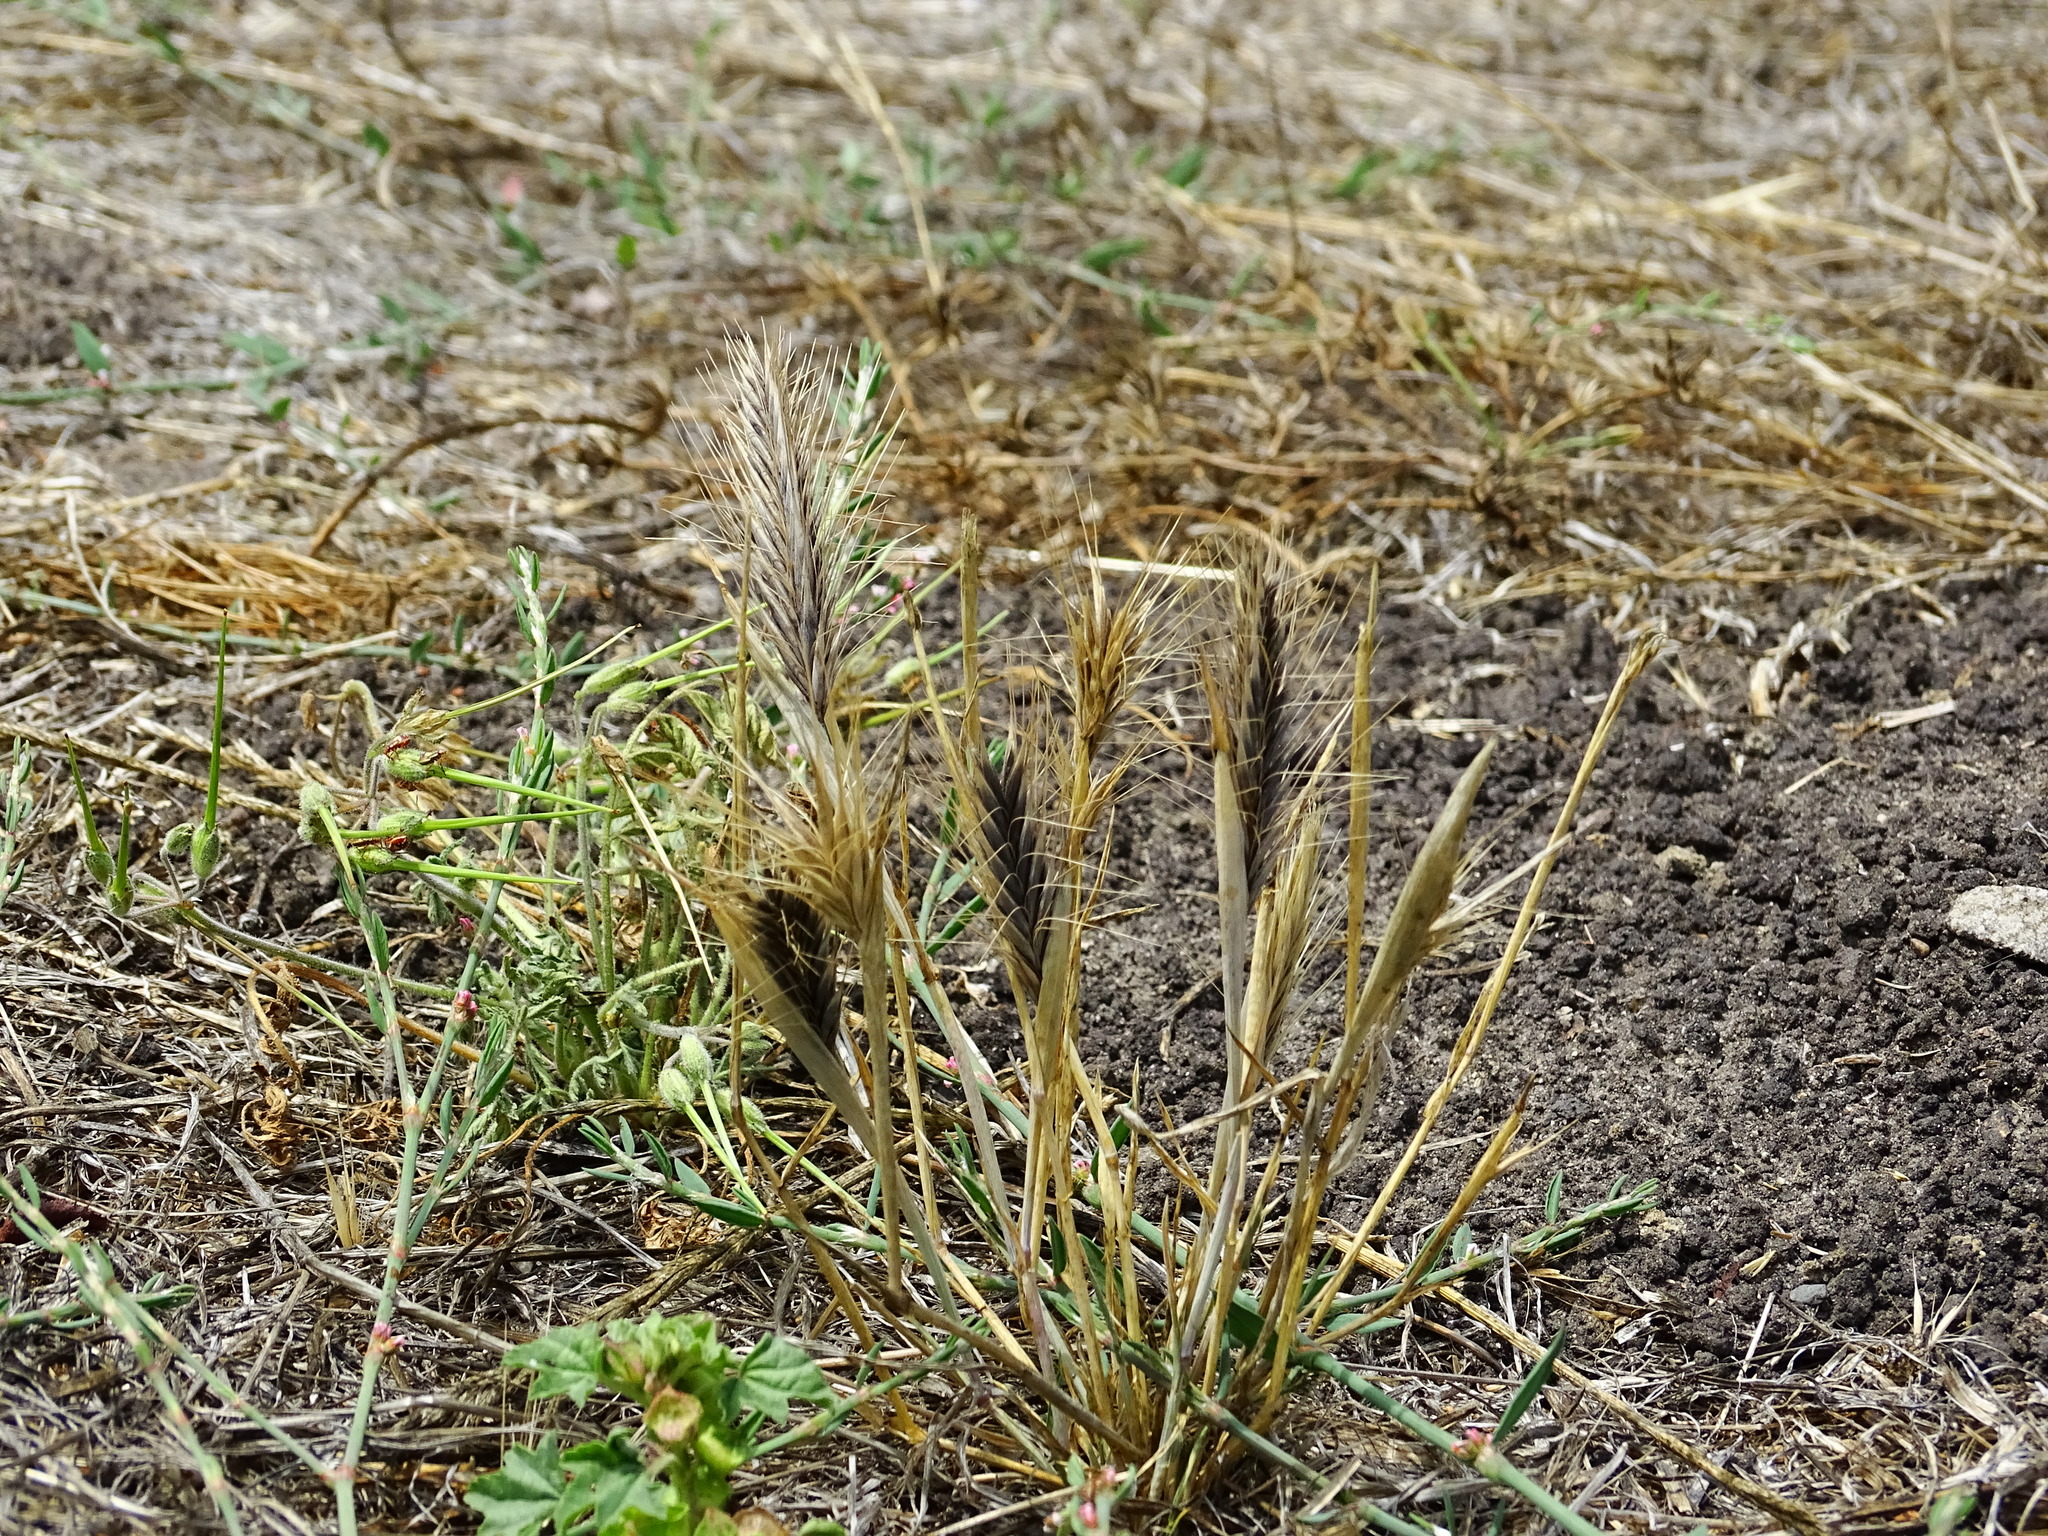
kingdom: Plantae
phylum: Tracheophyta
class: Liliopsida
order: Poales
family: Poaceae
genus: Hordeum
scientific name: Hordeum murinum
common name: Wall barley
